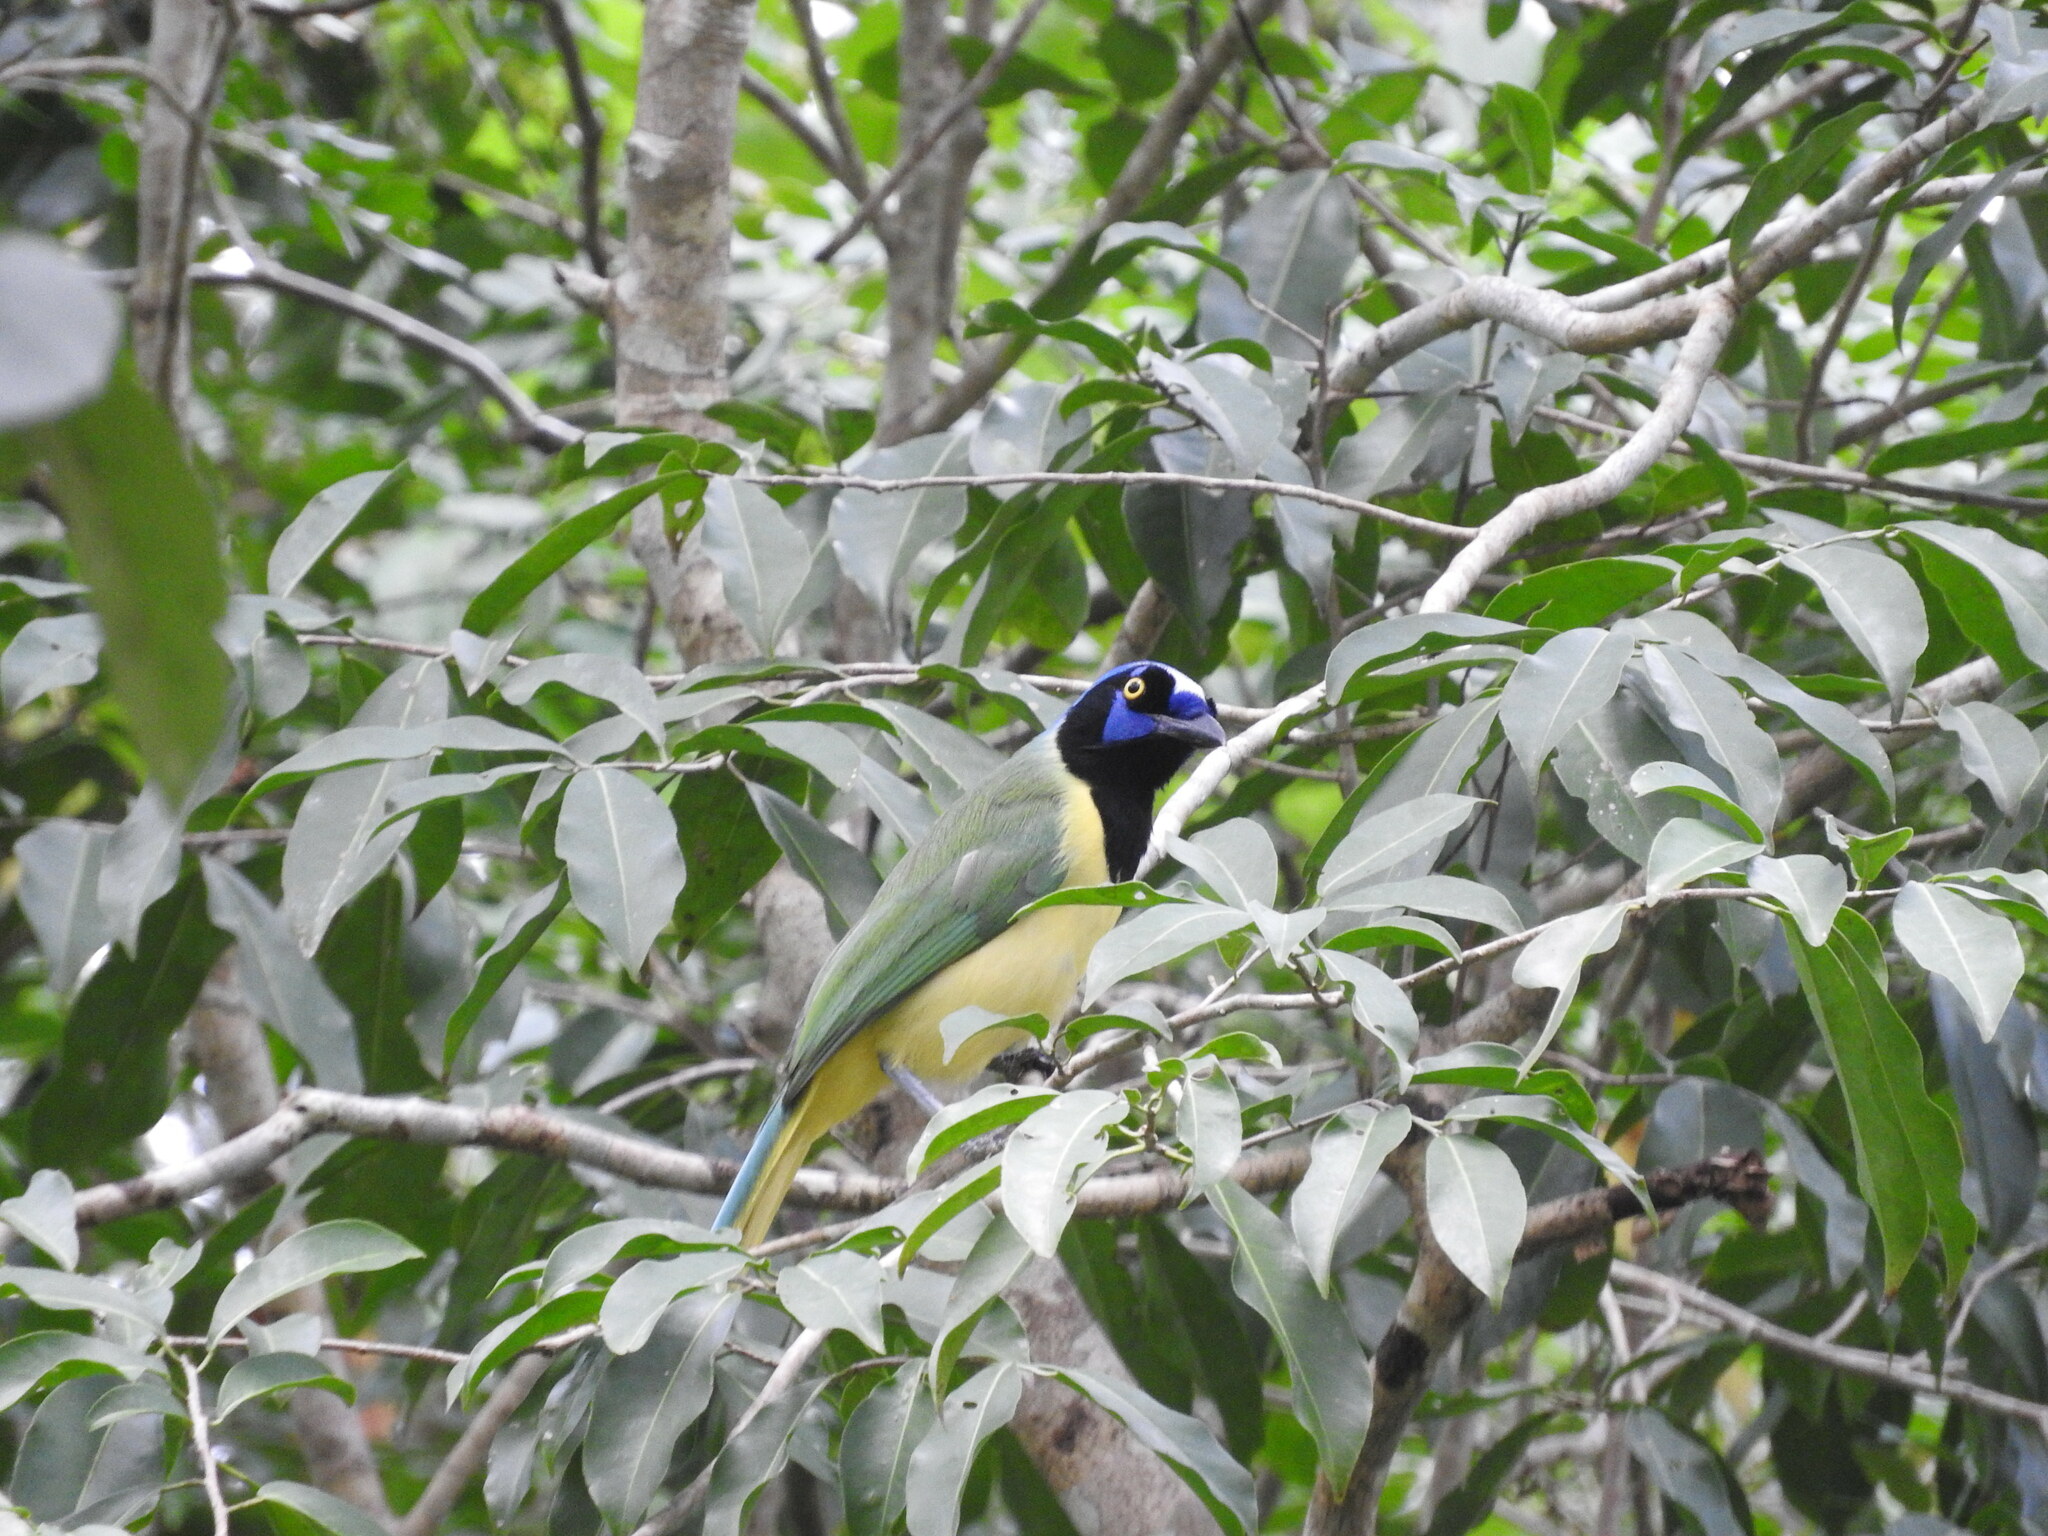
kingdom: Animalia
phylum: Chordata
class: Aves
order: Passeriformes
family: Corvidae
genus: Cyanocorax
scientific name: Cyanocorax yncas
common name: Green jay
